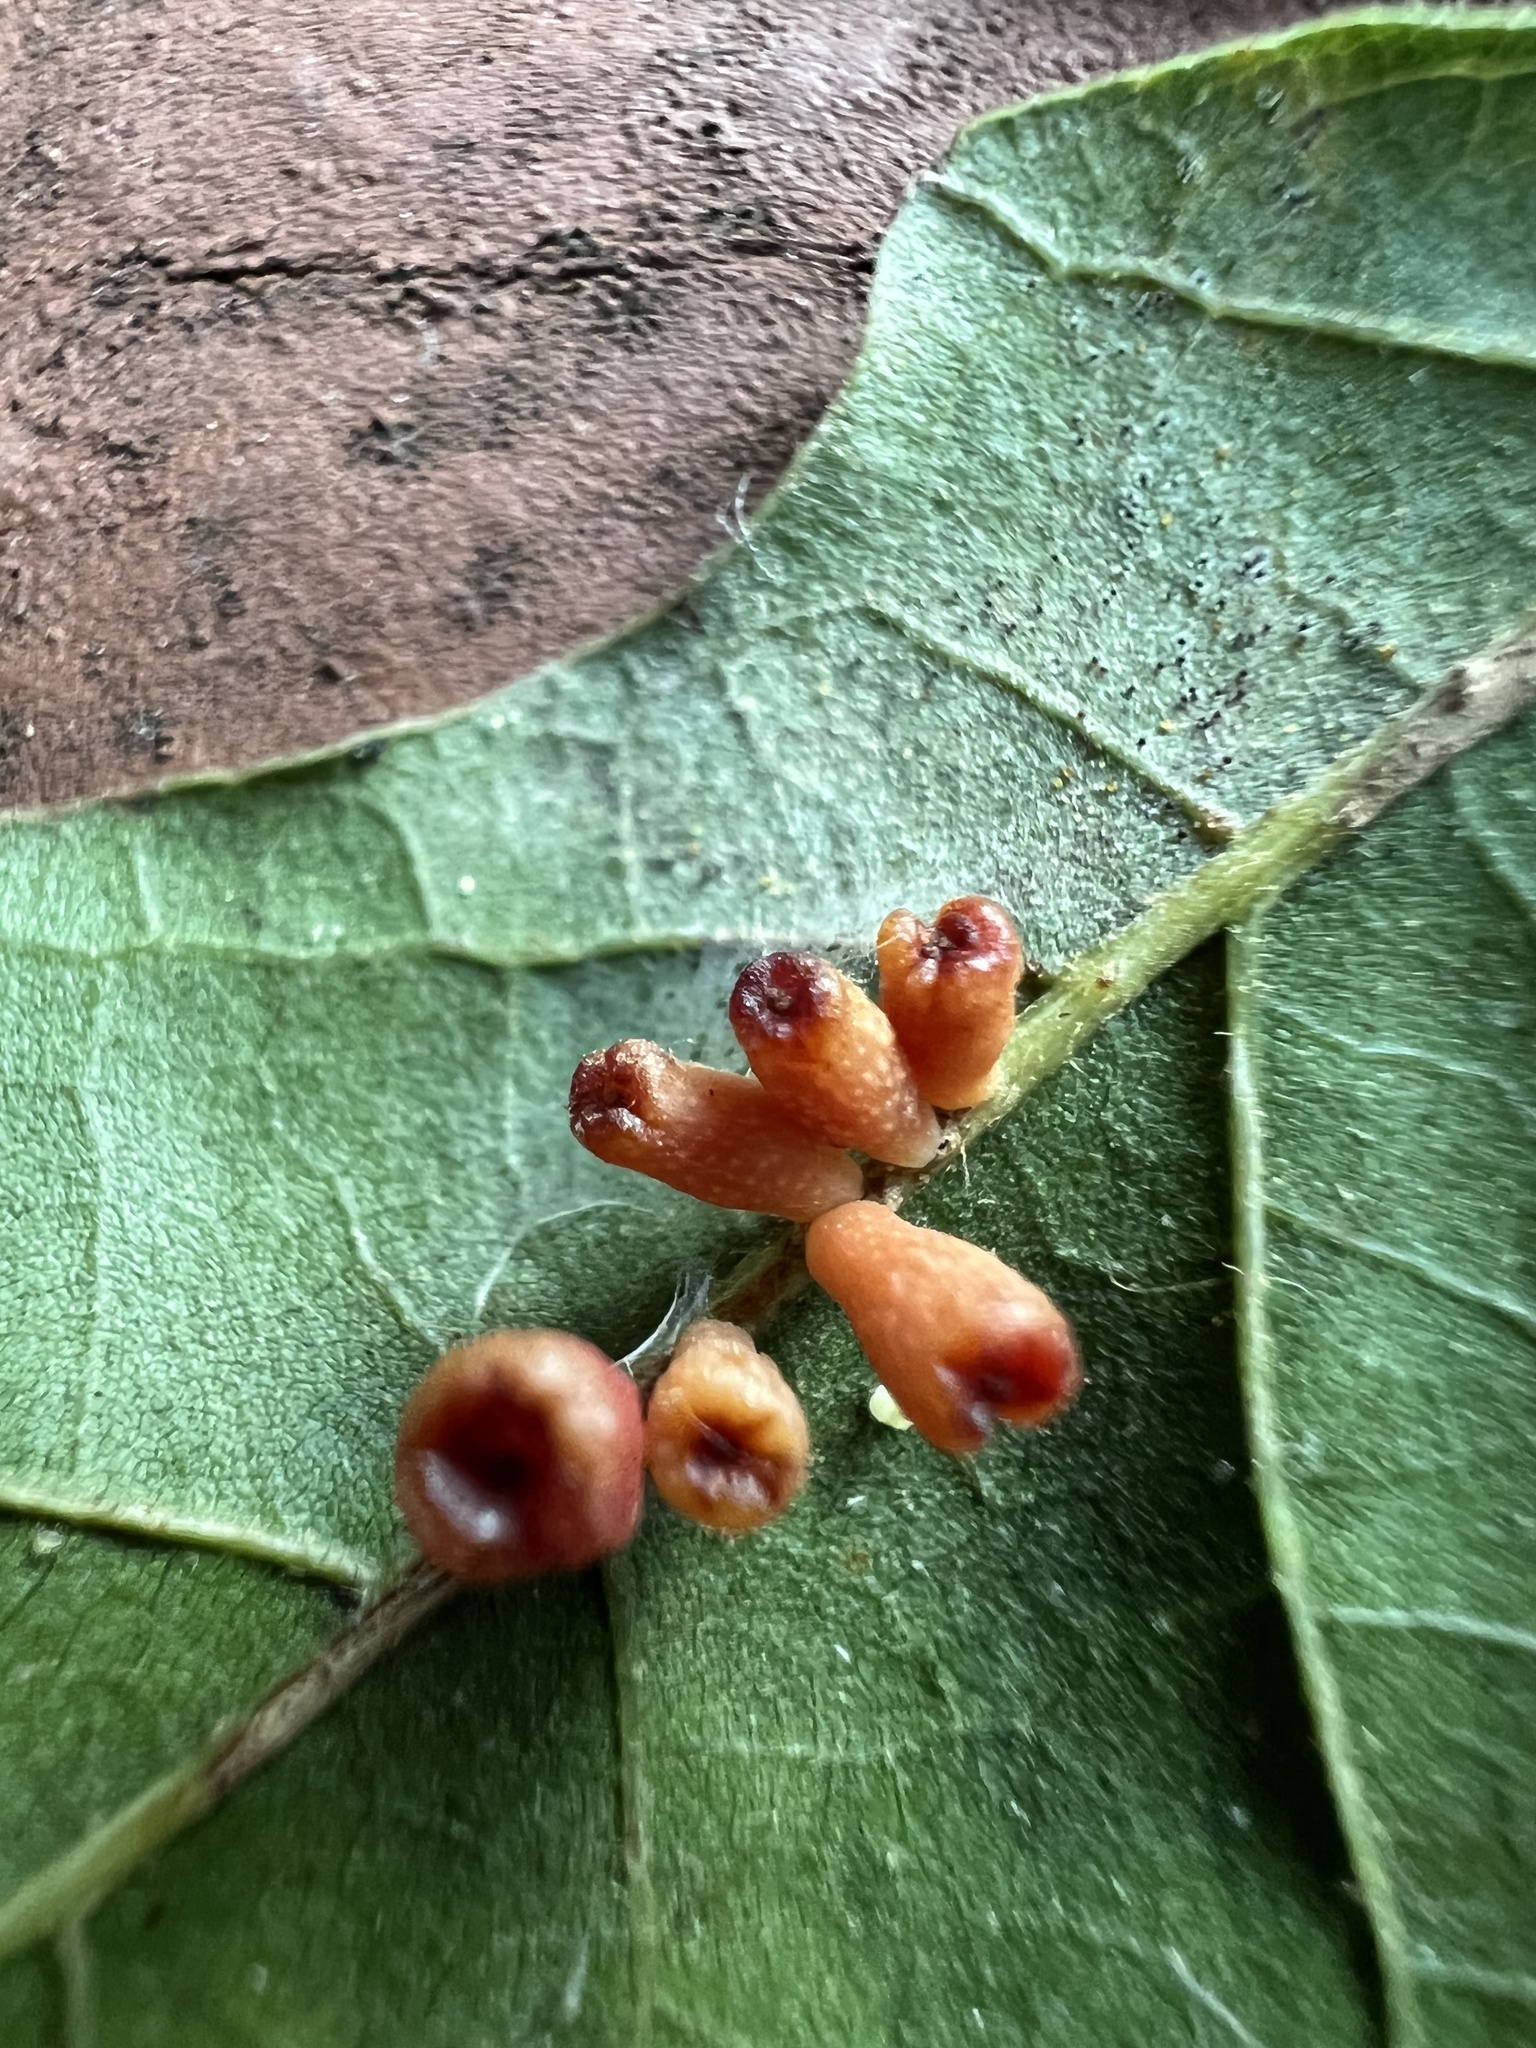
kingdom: Animalia
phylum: Arthropoda
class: Insecta
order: Hymenoptera
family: Cynipidae
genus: Andricus
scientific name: Andricus lustrans
